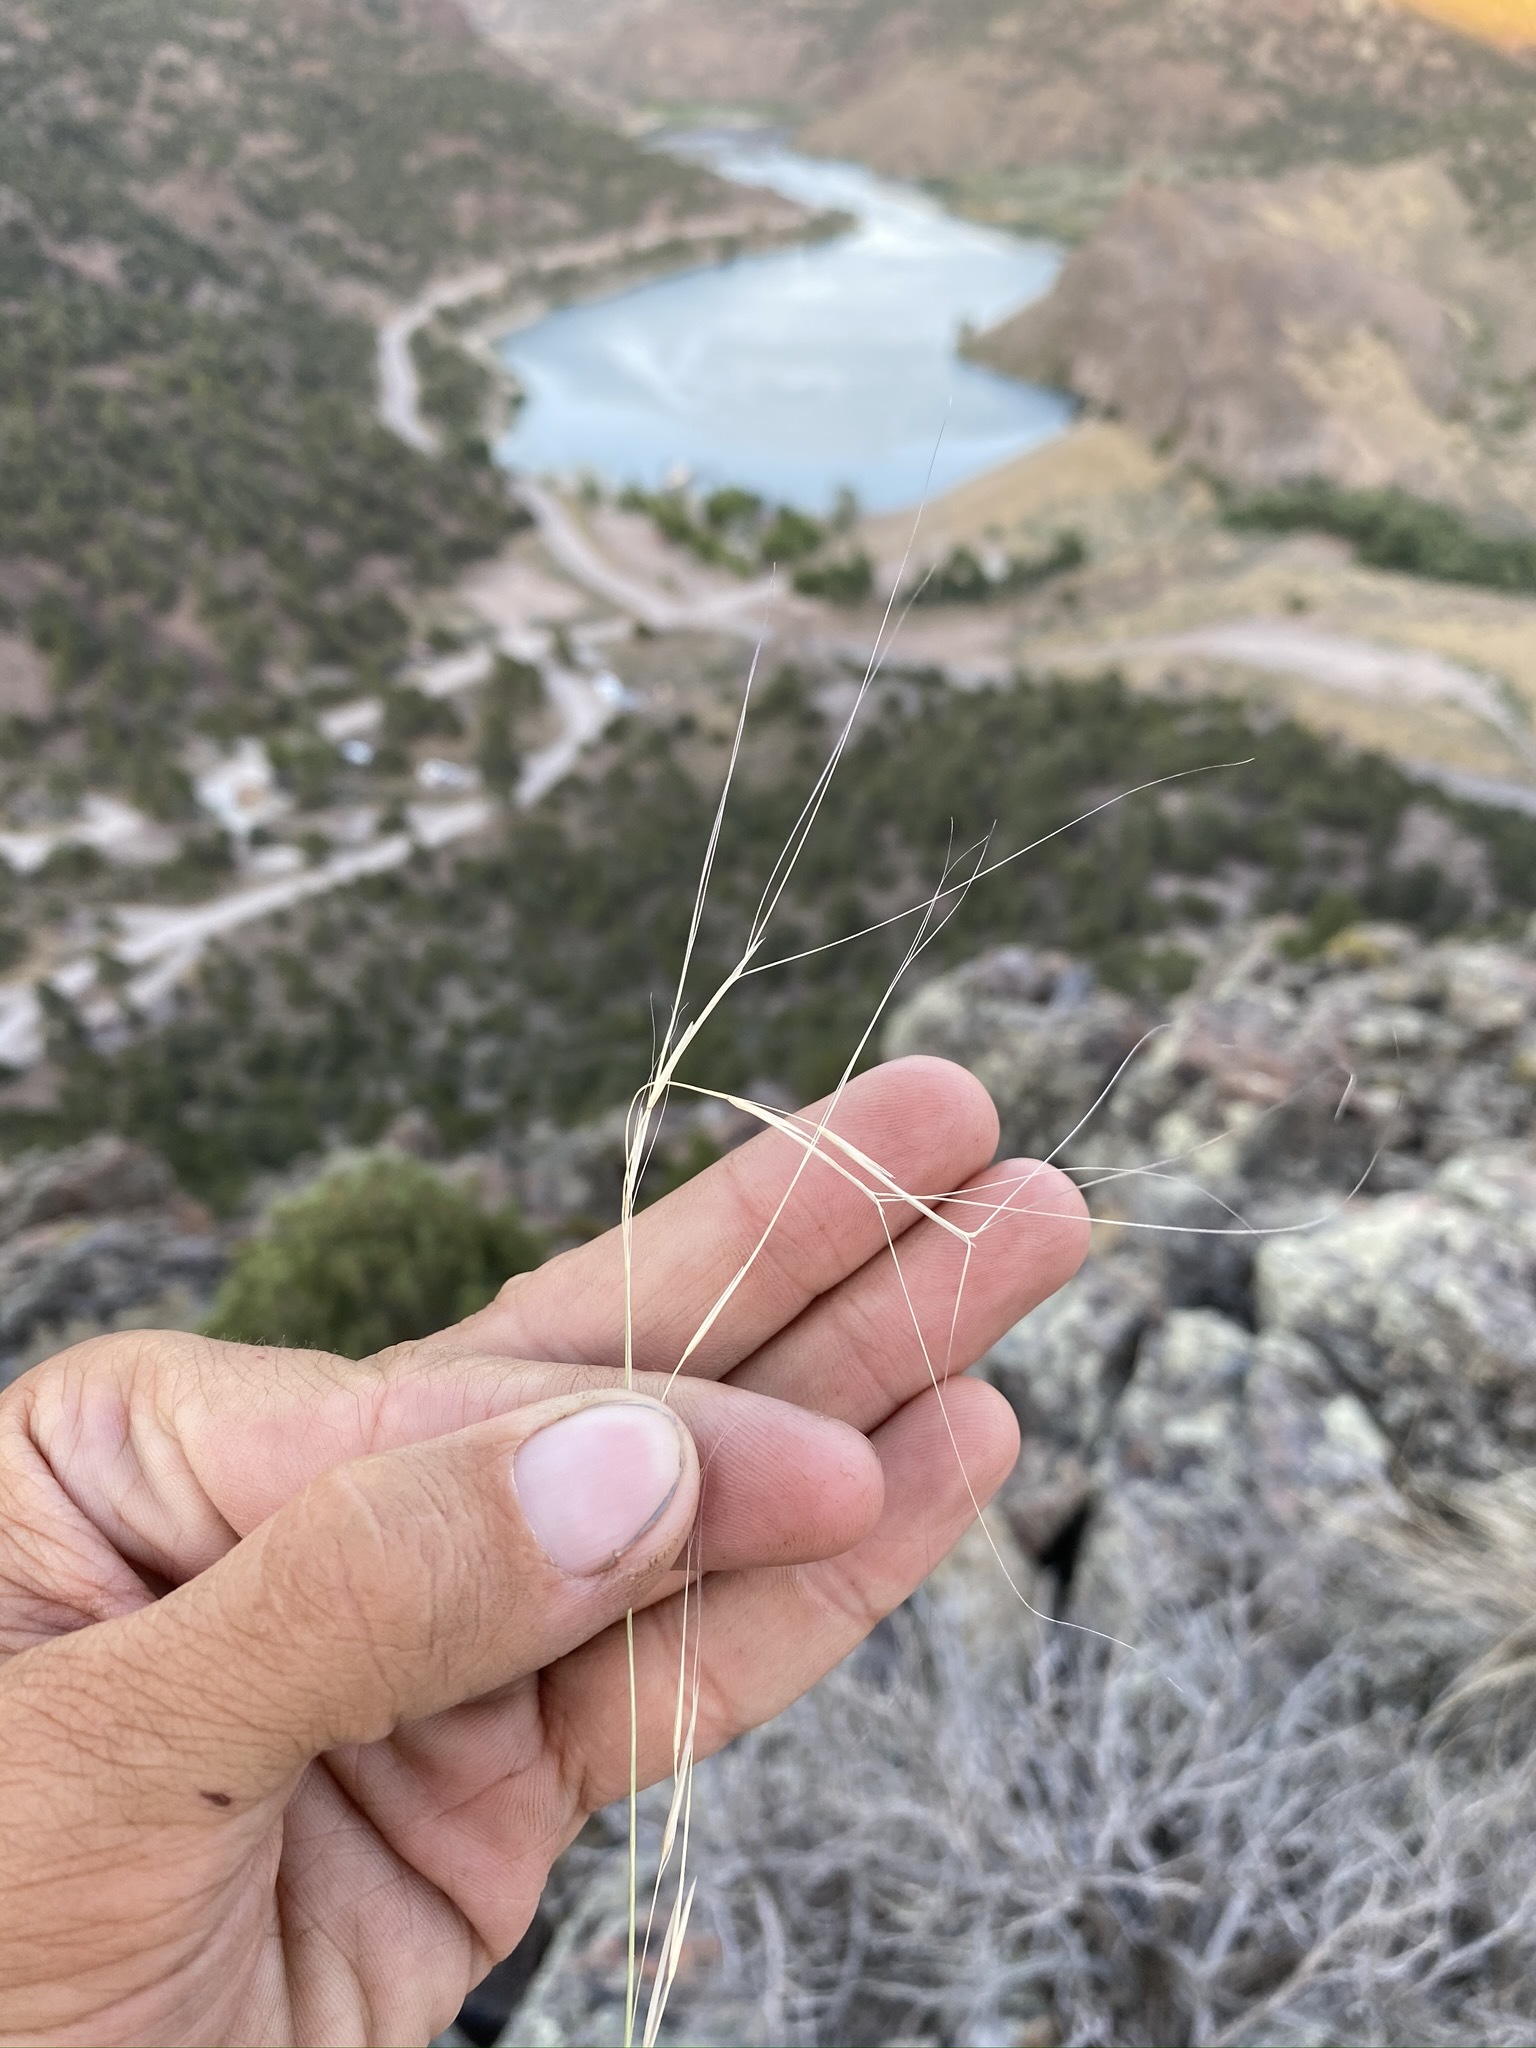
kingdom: Plantae
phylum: Tracheophyta
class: Liliopsida
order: Poales
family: Poaceae
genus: Aristida
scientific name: Aristida purpurea
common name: Purple threeawn
